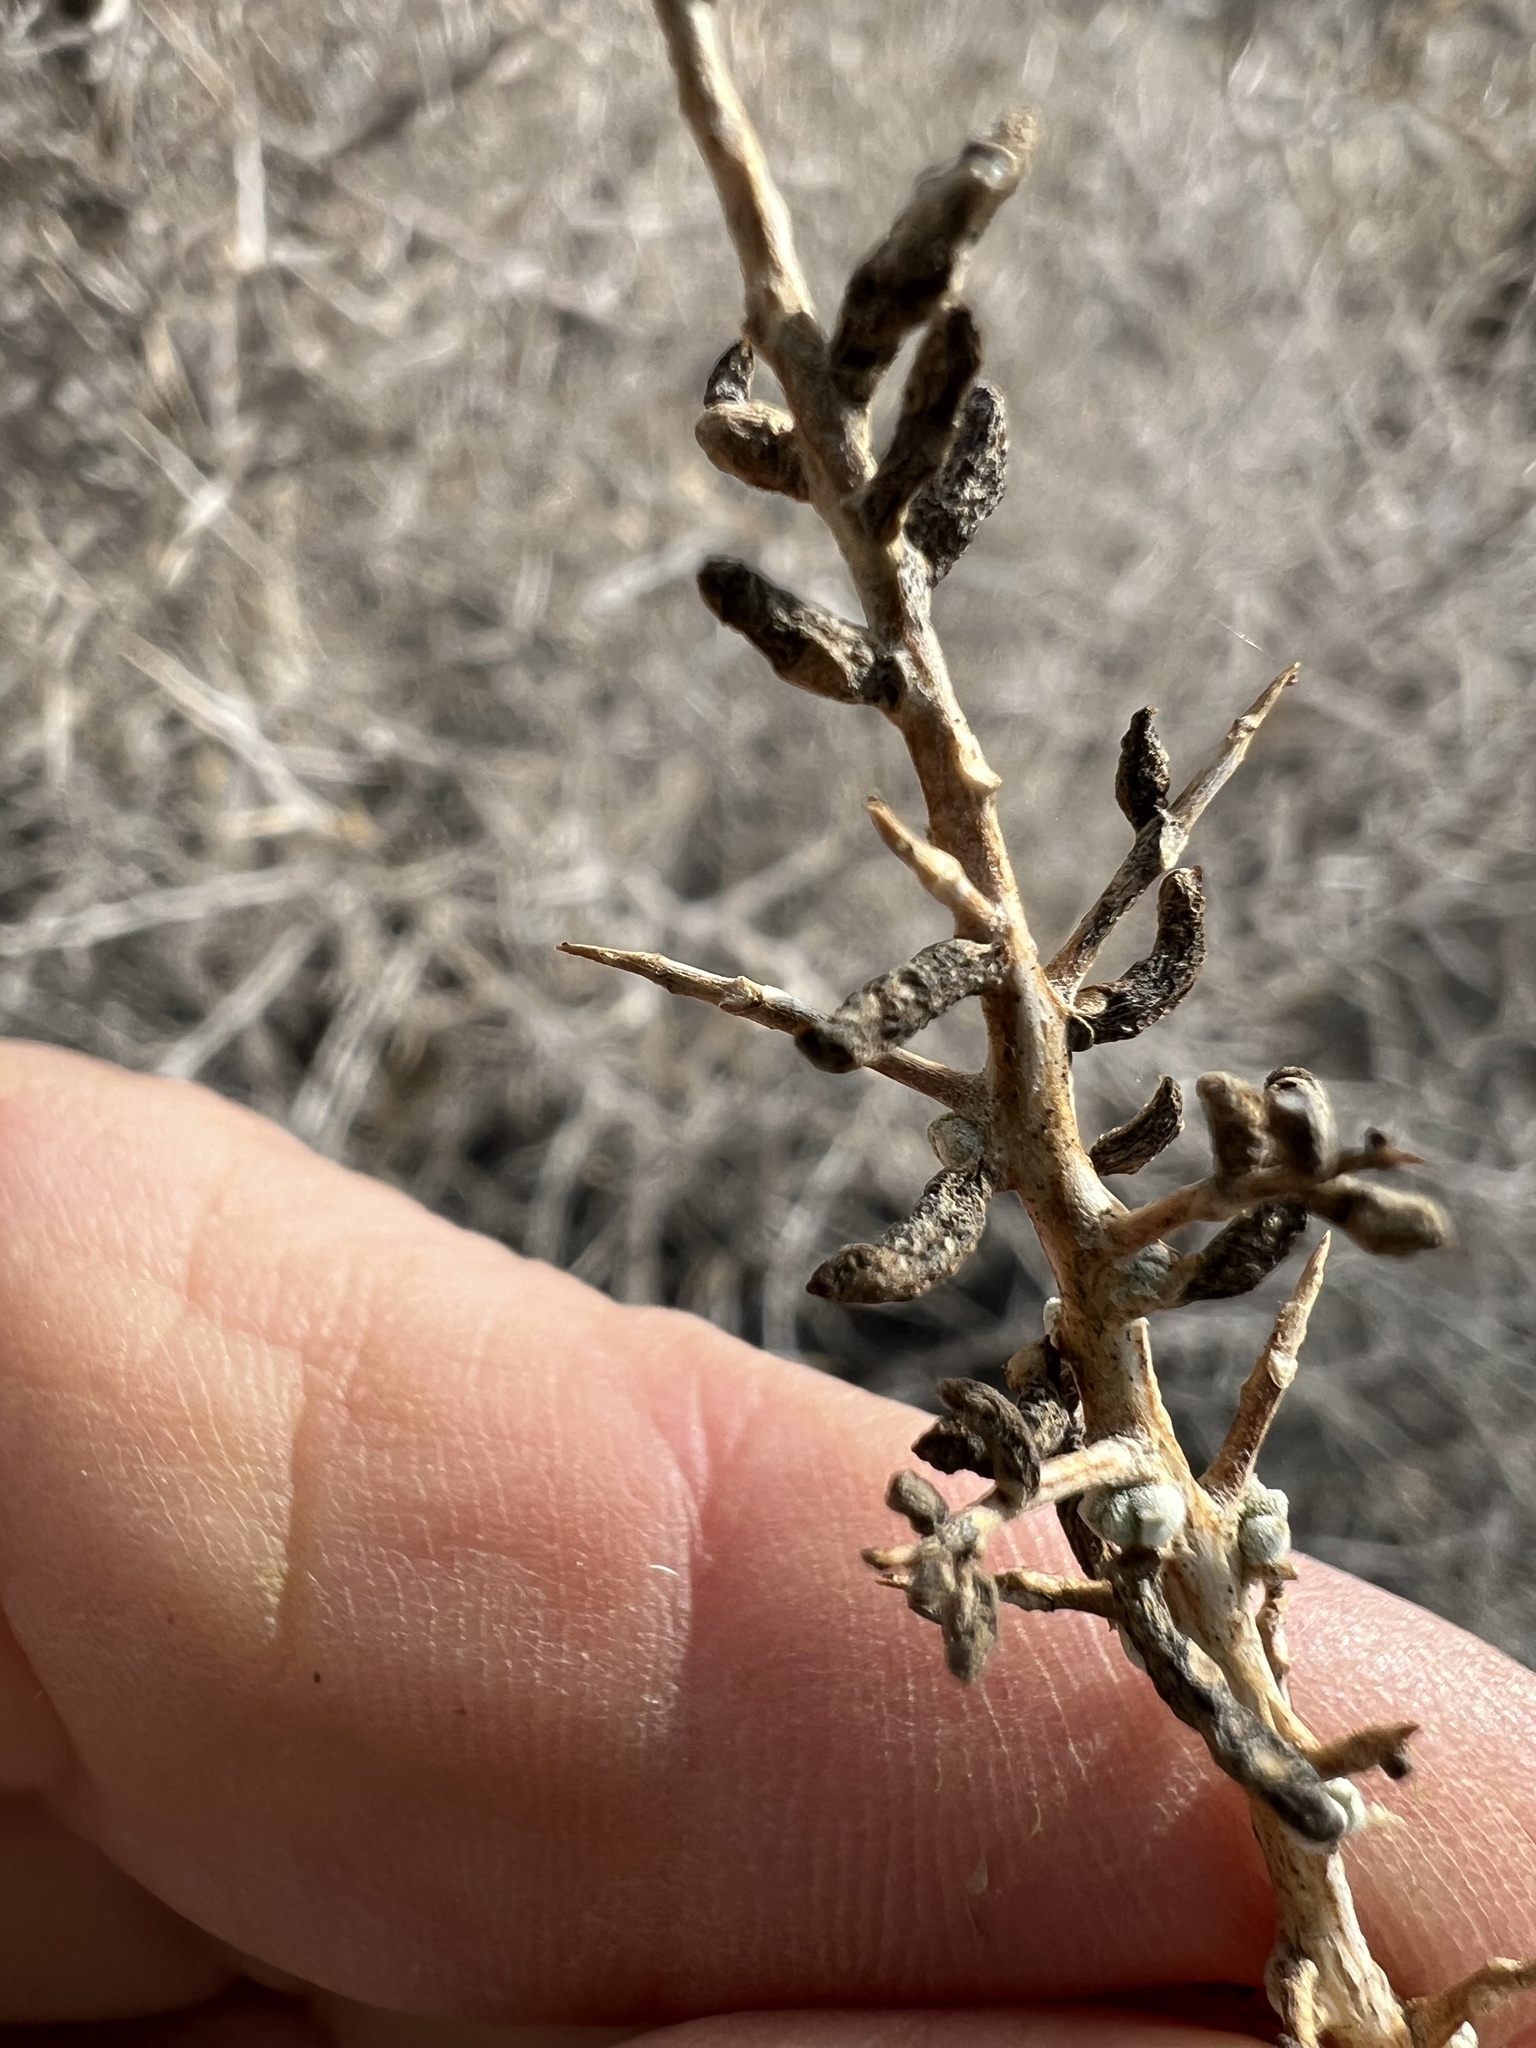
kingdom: Plantae
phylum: Tracheophyta
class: Magnoliopsida
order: Caryophyllales
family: Sarcobataceae
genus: Sarcobatus
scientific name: Sarcobatus vermiculatus
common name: Greasewood
